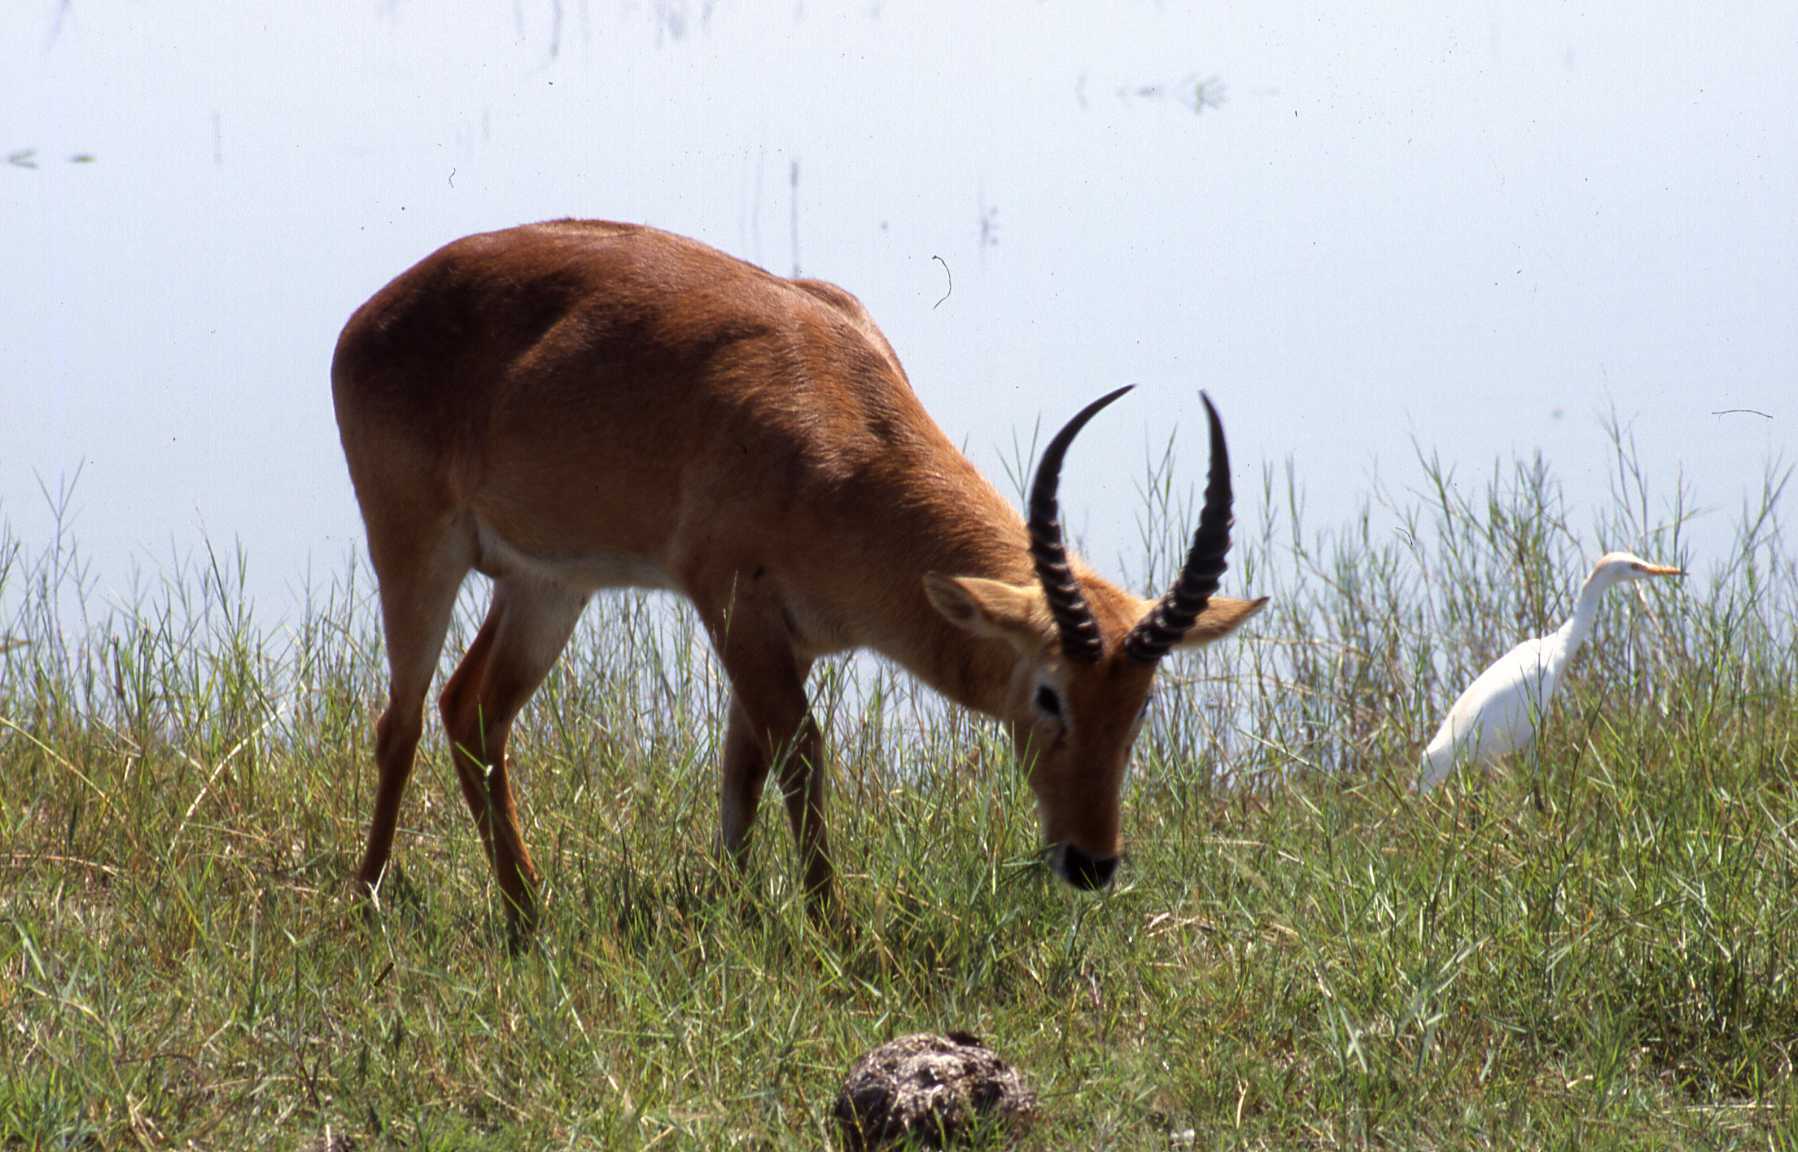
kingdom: Animalia
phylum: Chordata
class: Mammalia
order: Artiodactyla
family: Bovidae
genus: Kobus
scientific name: Kobus vardonii
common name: Puku
